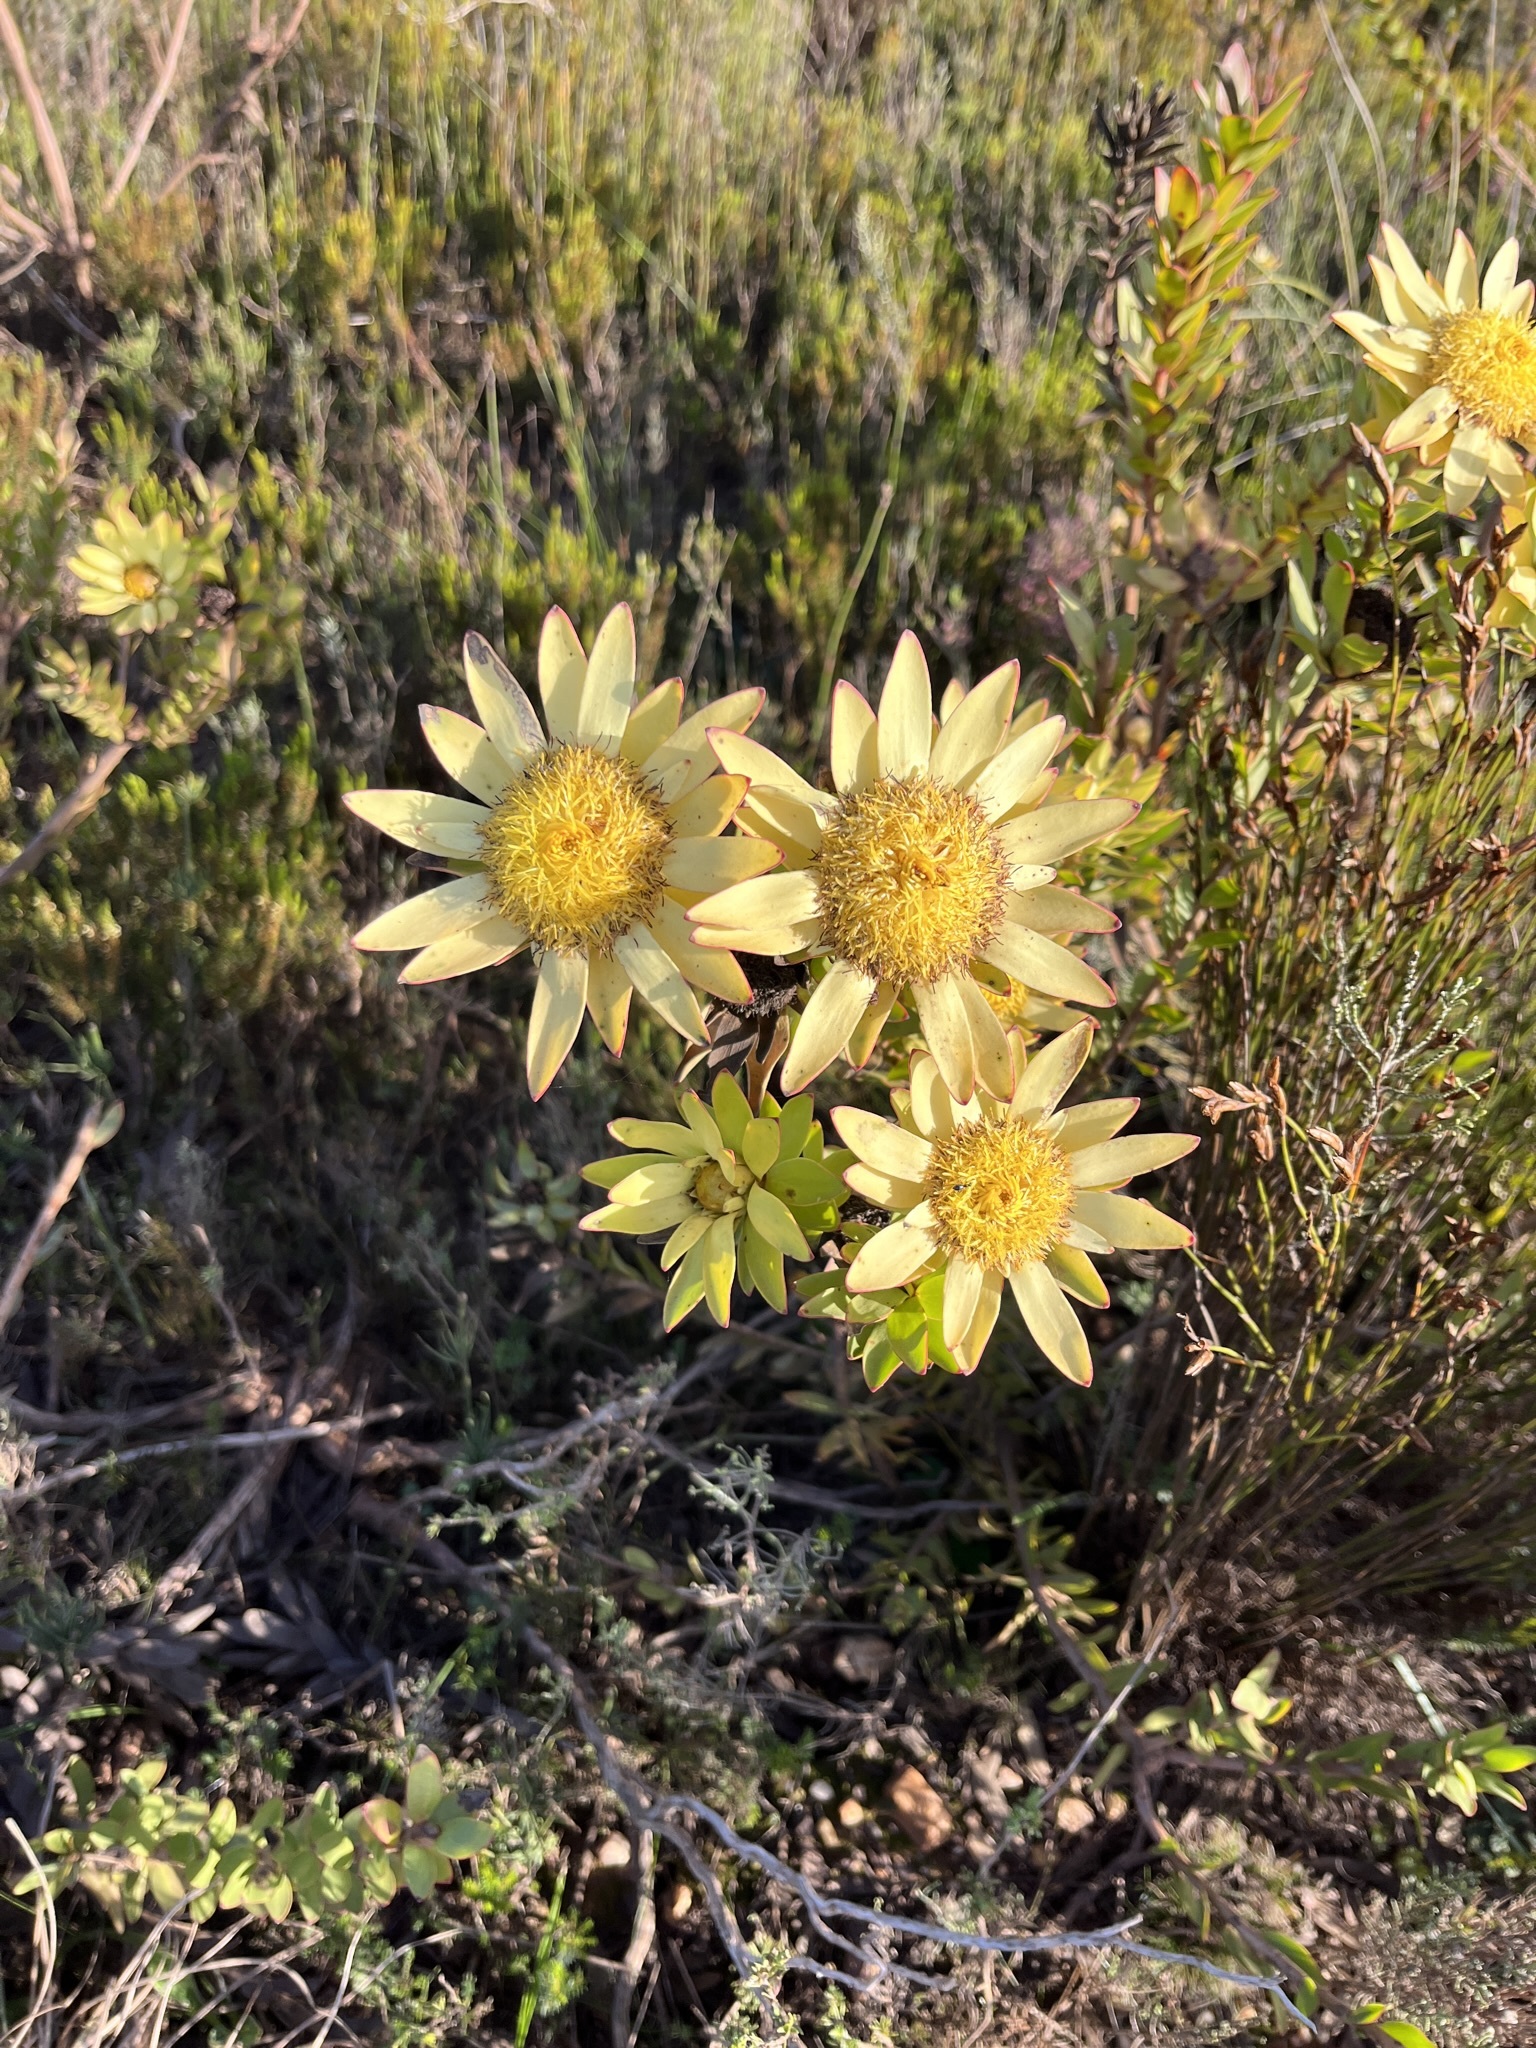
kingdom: Plantae
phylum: Tracheophyta
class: Magnoliopsida
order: Proteales
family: Proteaceae
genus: Leucadendron
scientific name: Leucadendron elimense
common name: Elim conebush
